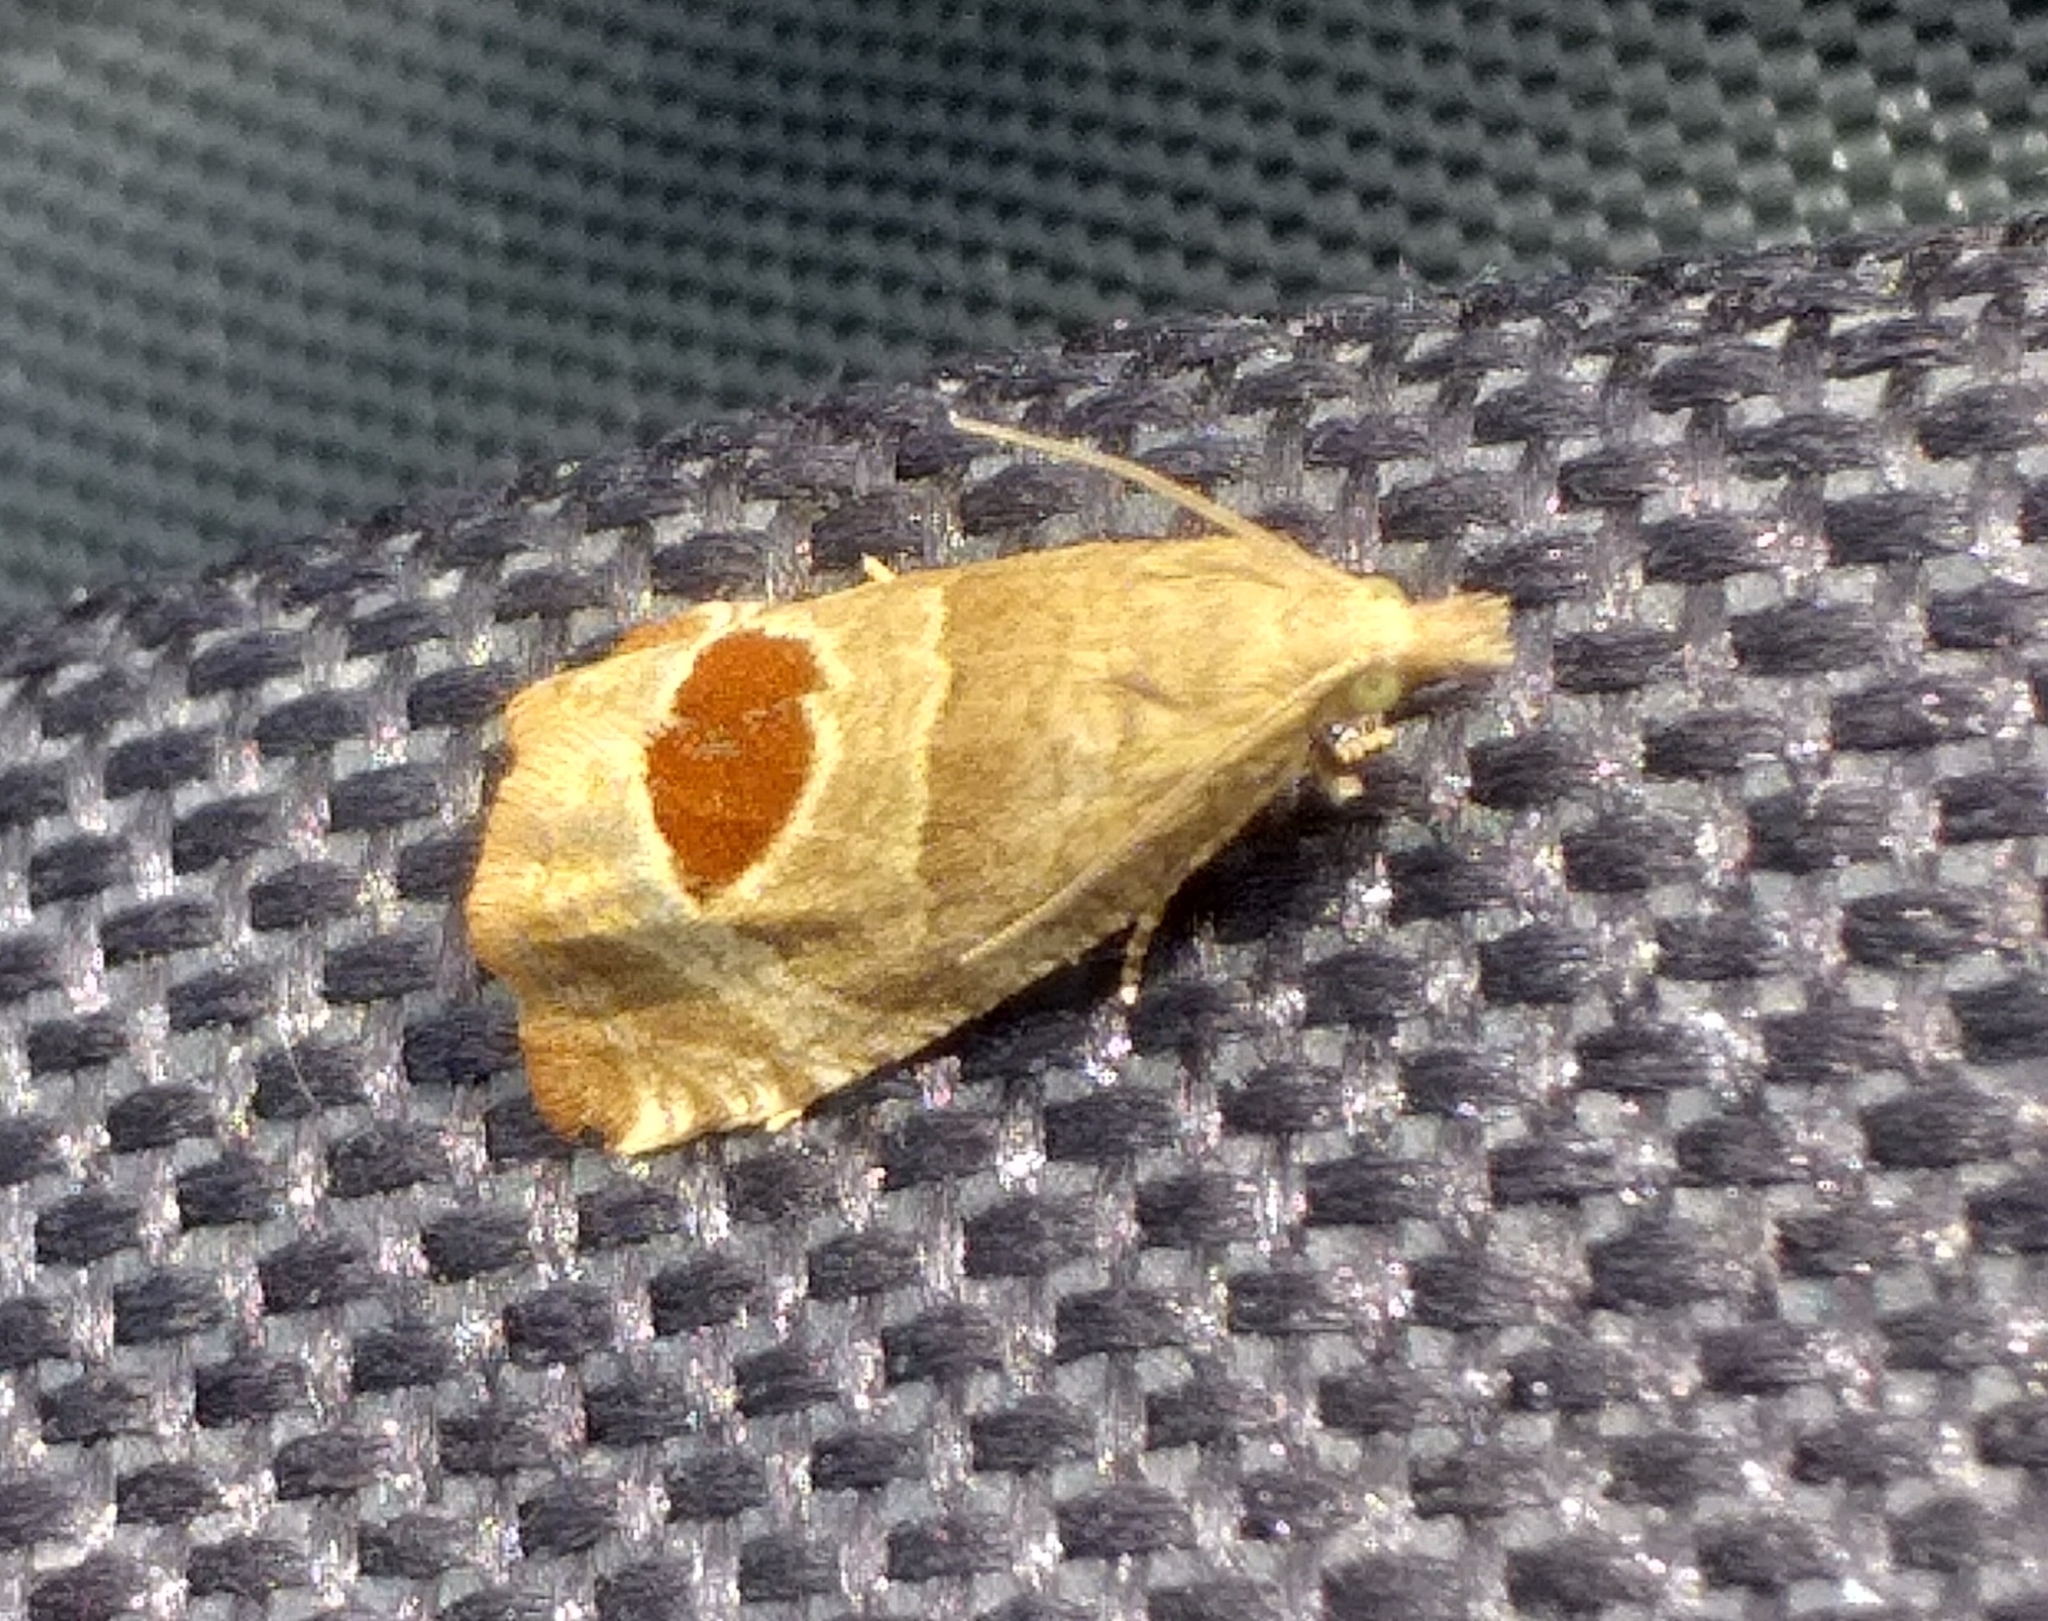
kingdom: Animalia
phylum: Arthropoda
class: Insecta
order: Lepidoptera
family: Tortricidae
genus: Notocelia
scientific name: Notocelia uddmanniana
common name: Bramble shoot moth
